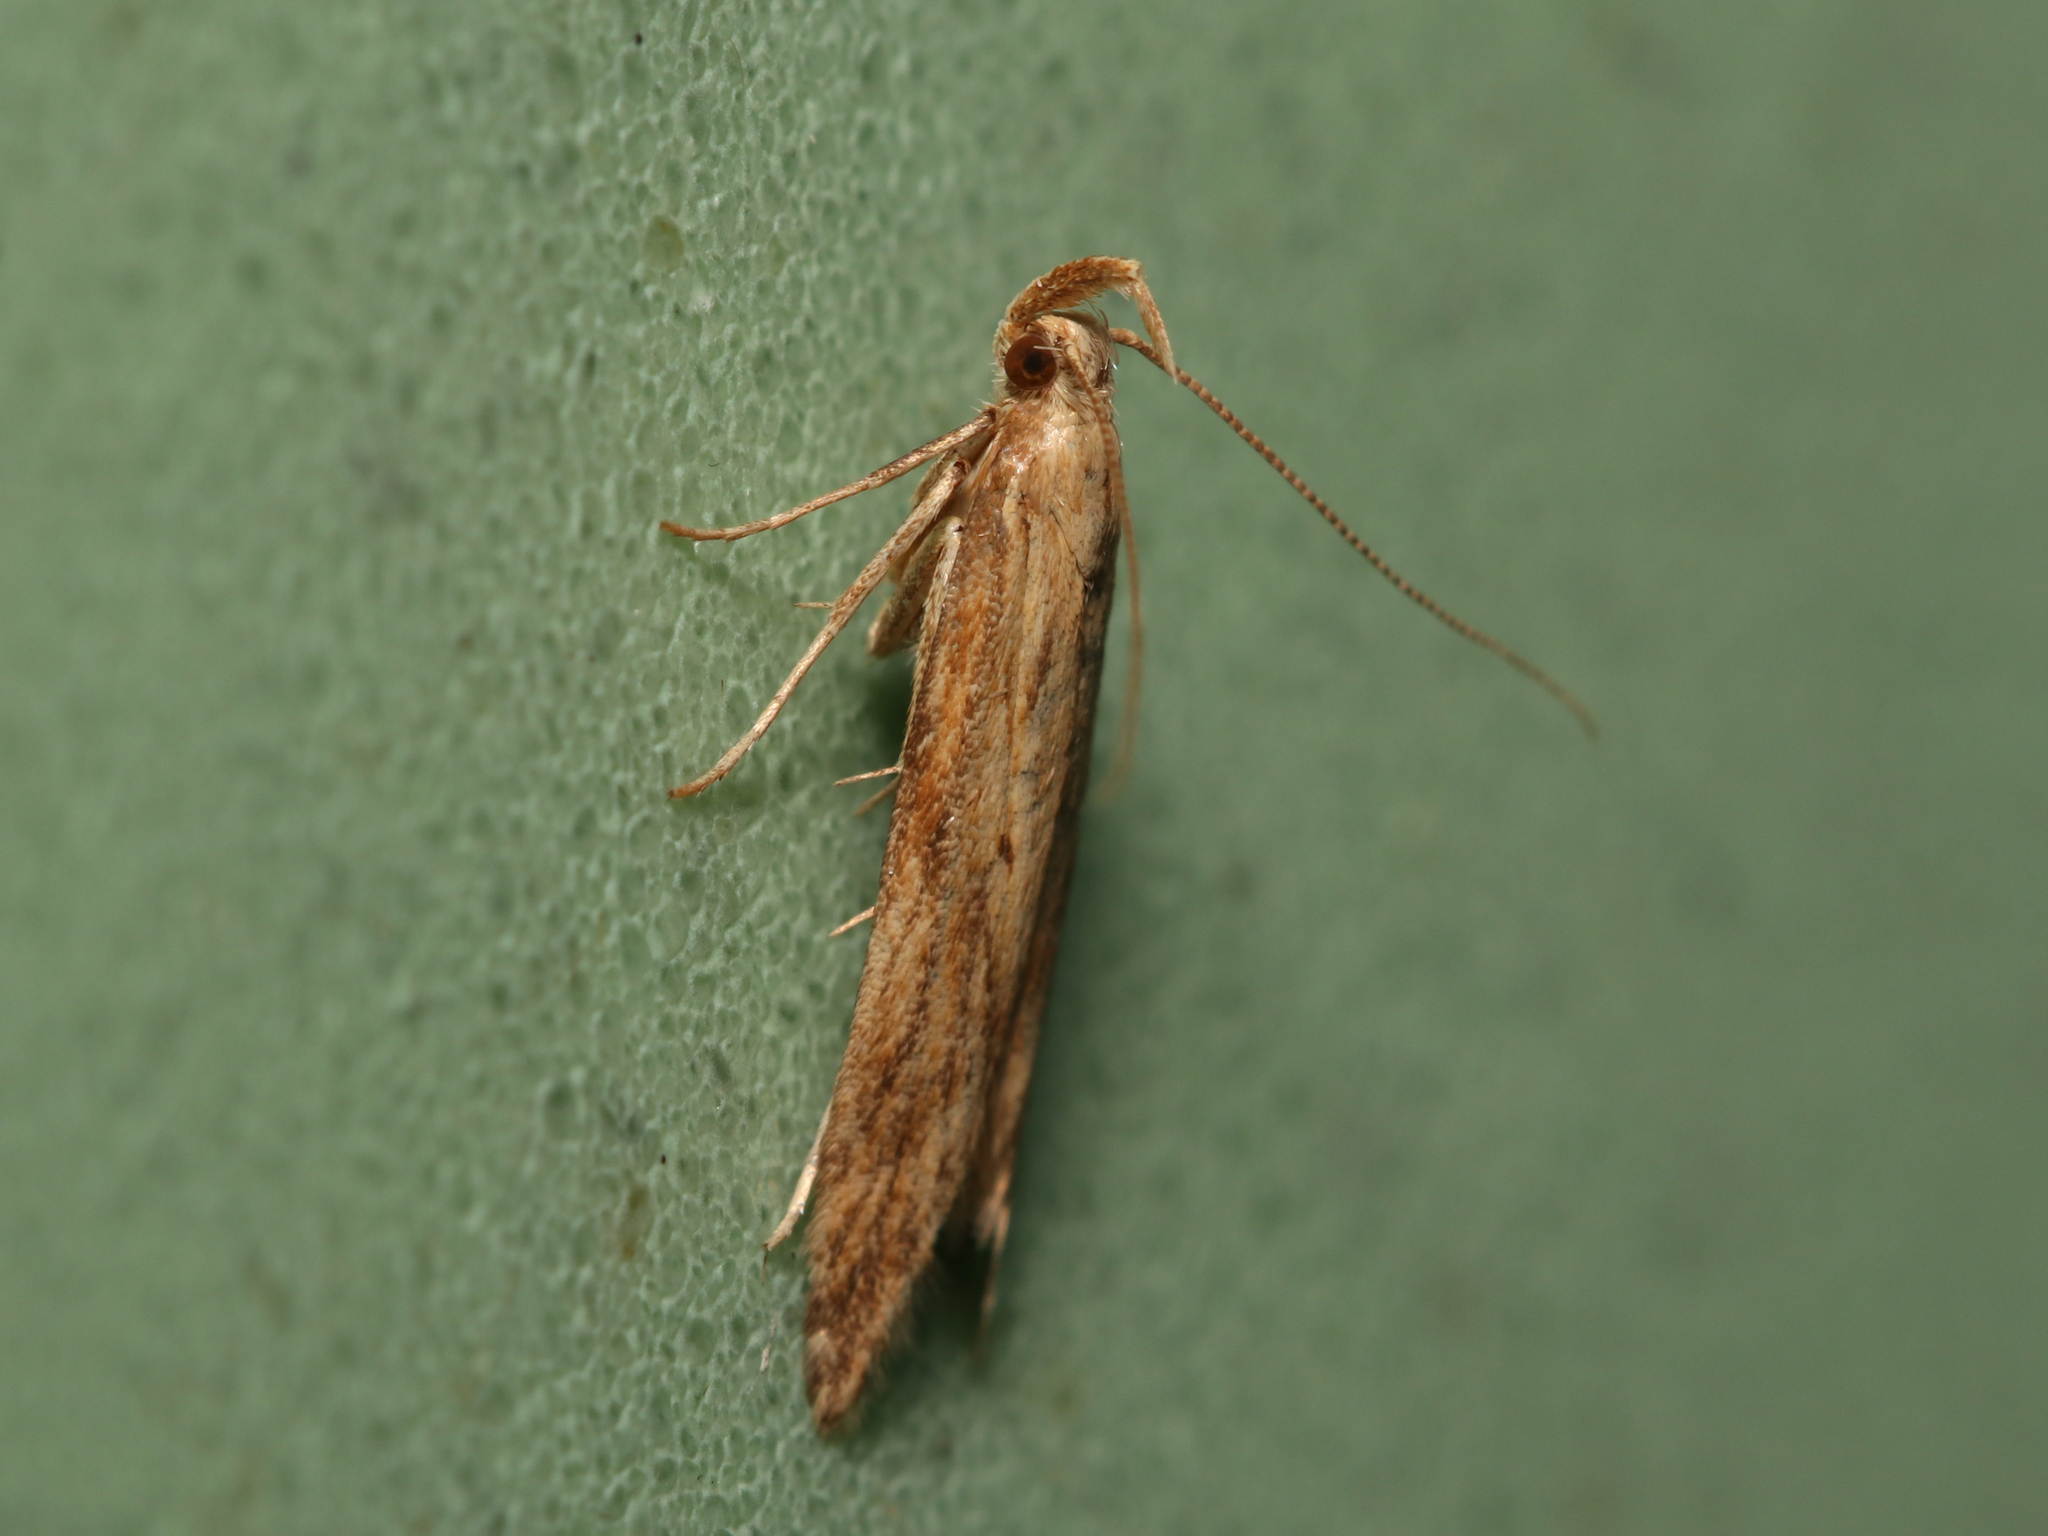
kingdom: Animalia
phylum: Arthropoda
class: Insecta
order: Lepidoptera
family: Gelechiidae
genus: Metzneria
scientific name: Metzneria lappella
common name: Burdock neb
